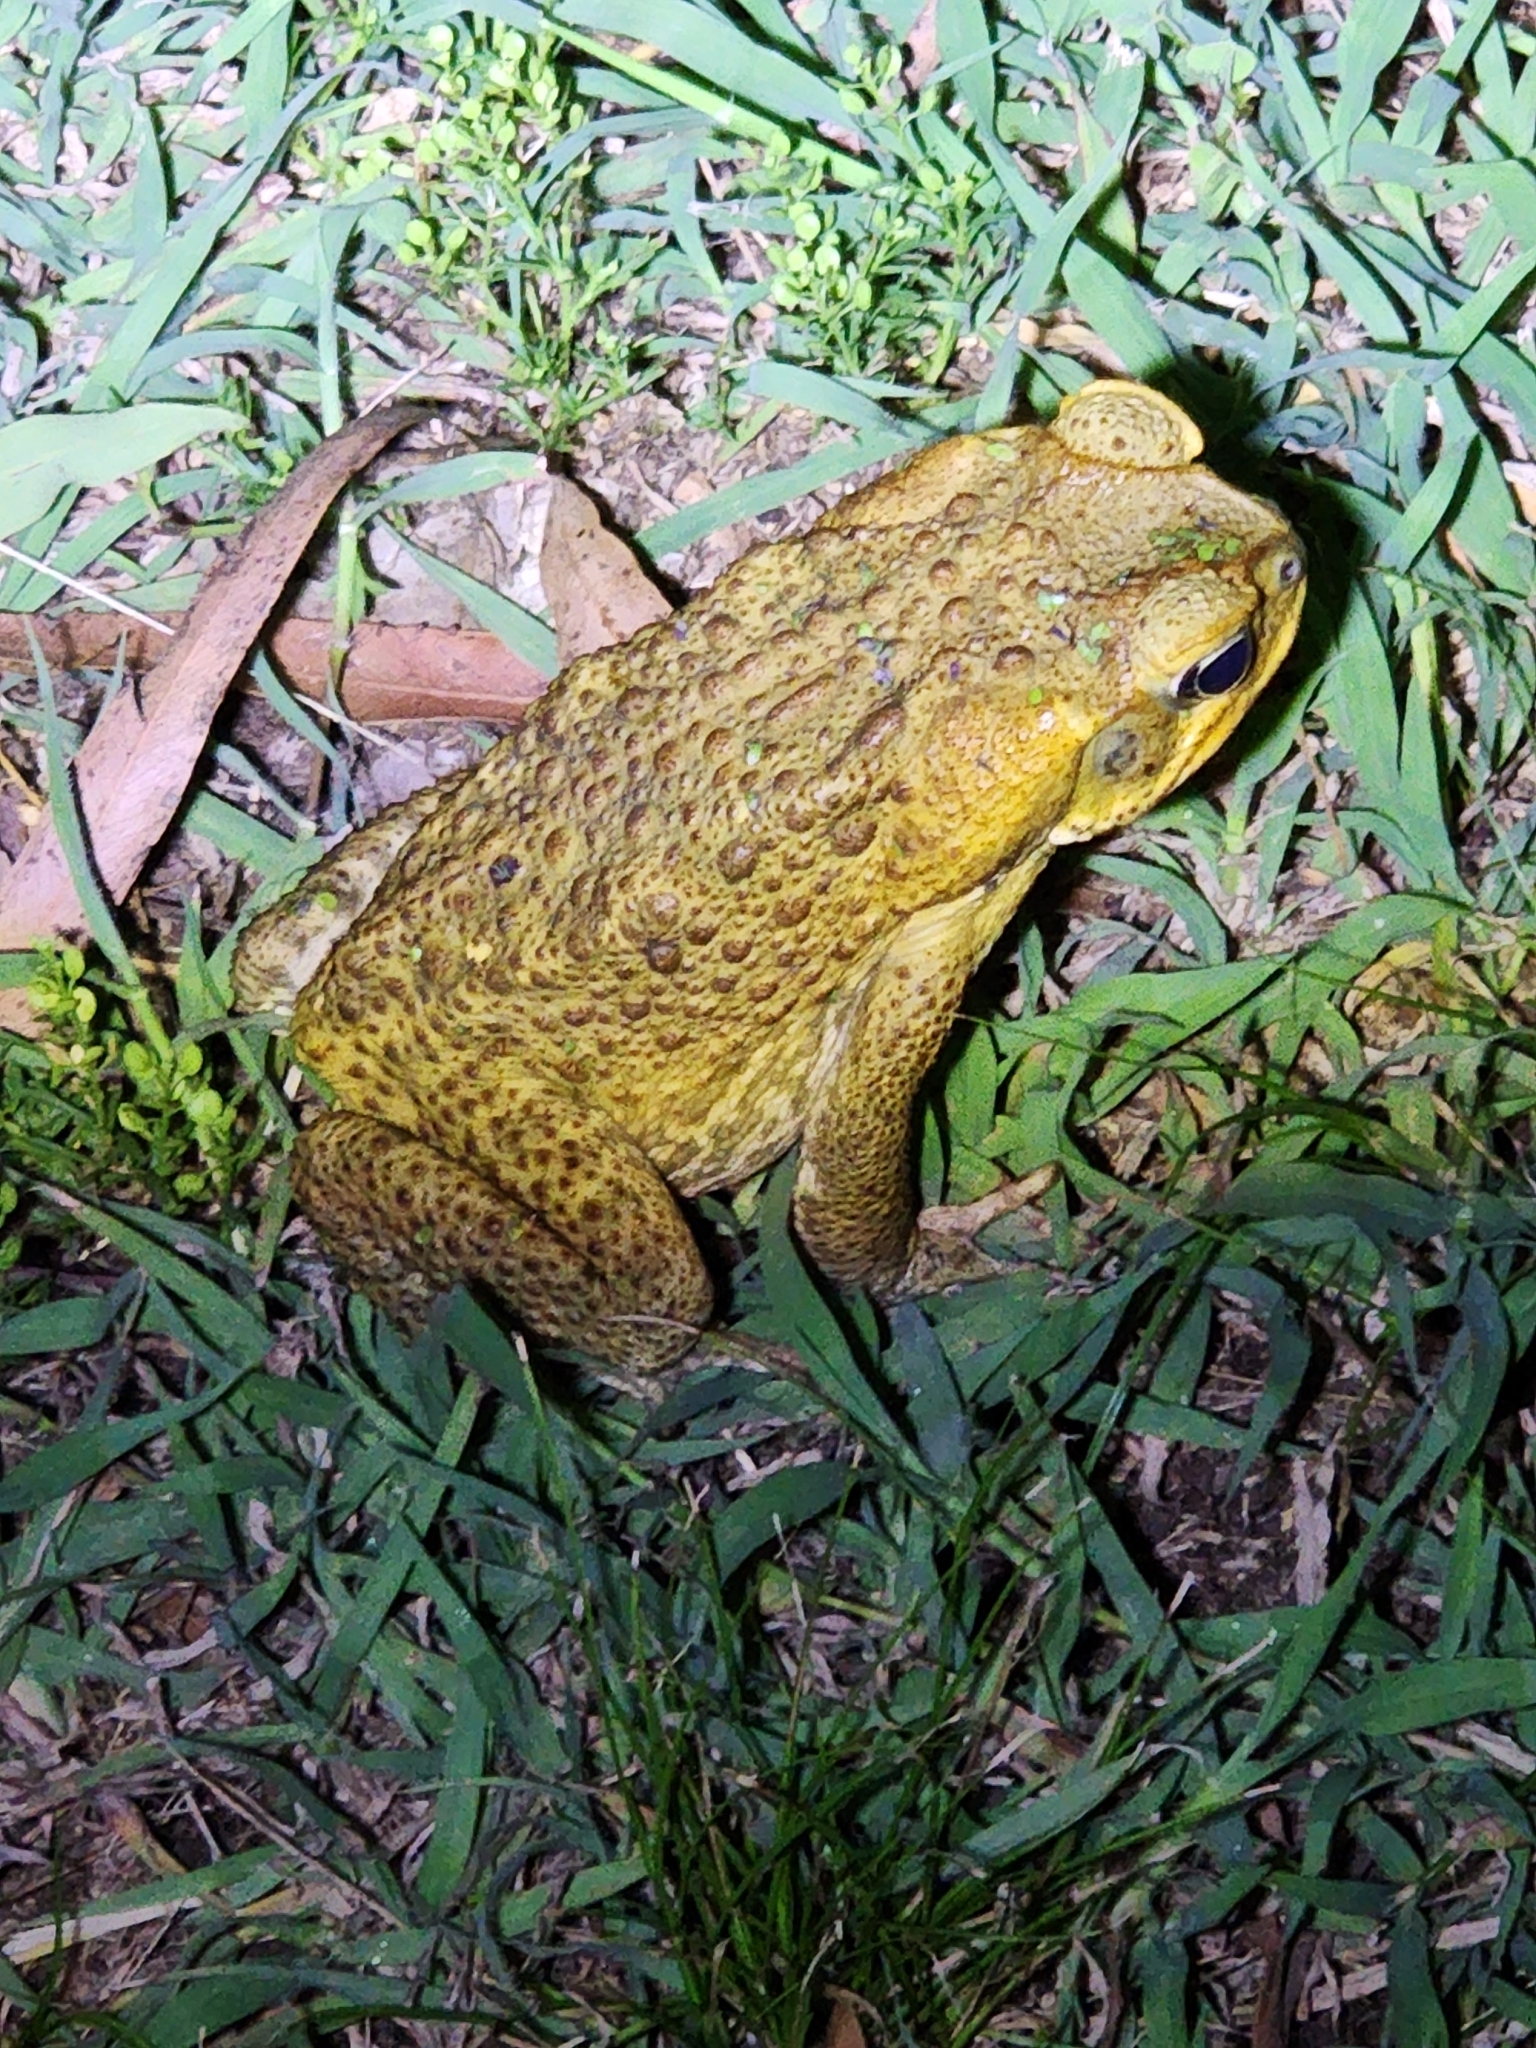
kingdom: Animalia
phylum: Chordata
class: Amphibia
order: Anura
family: Bufonidae
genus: Rhinella
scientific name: Rhinella marina
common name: Cane toad
